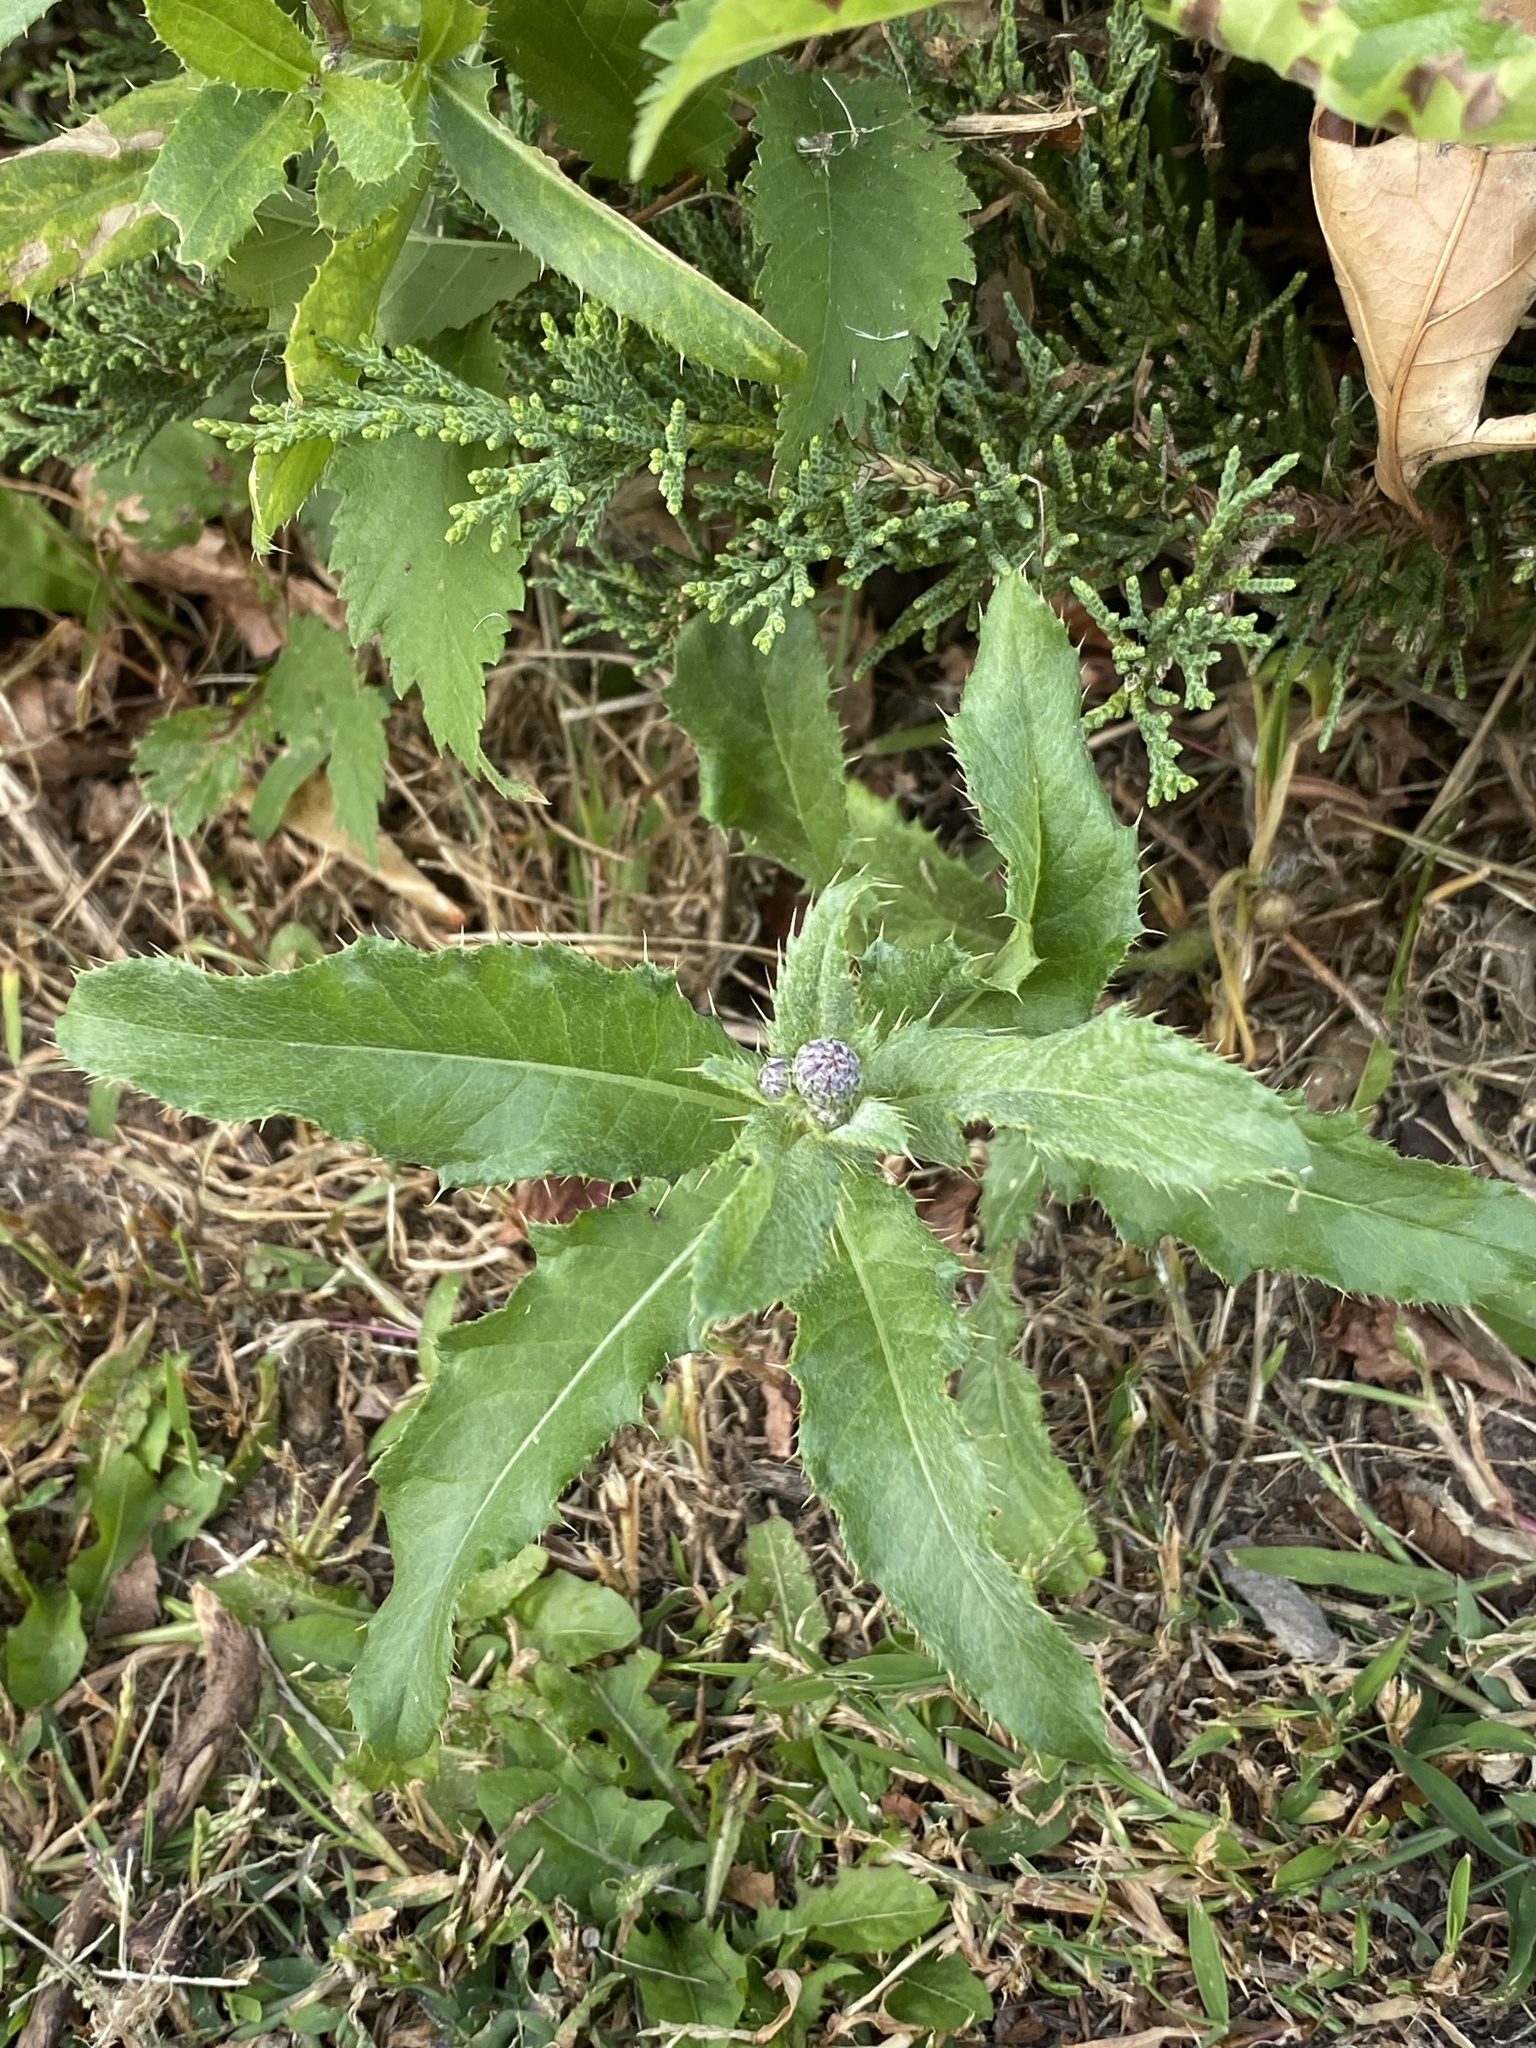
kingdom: Plantae
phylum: Tracheophyta
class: Magnoliopsida
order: Asterales
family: Asteraceae
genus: Cirsium
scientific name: Cirsium arvense
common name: Creeping thistle
